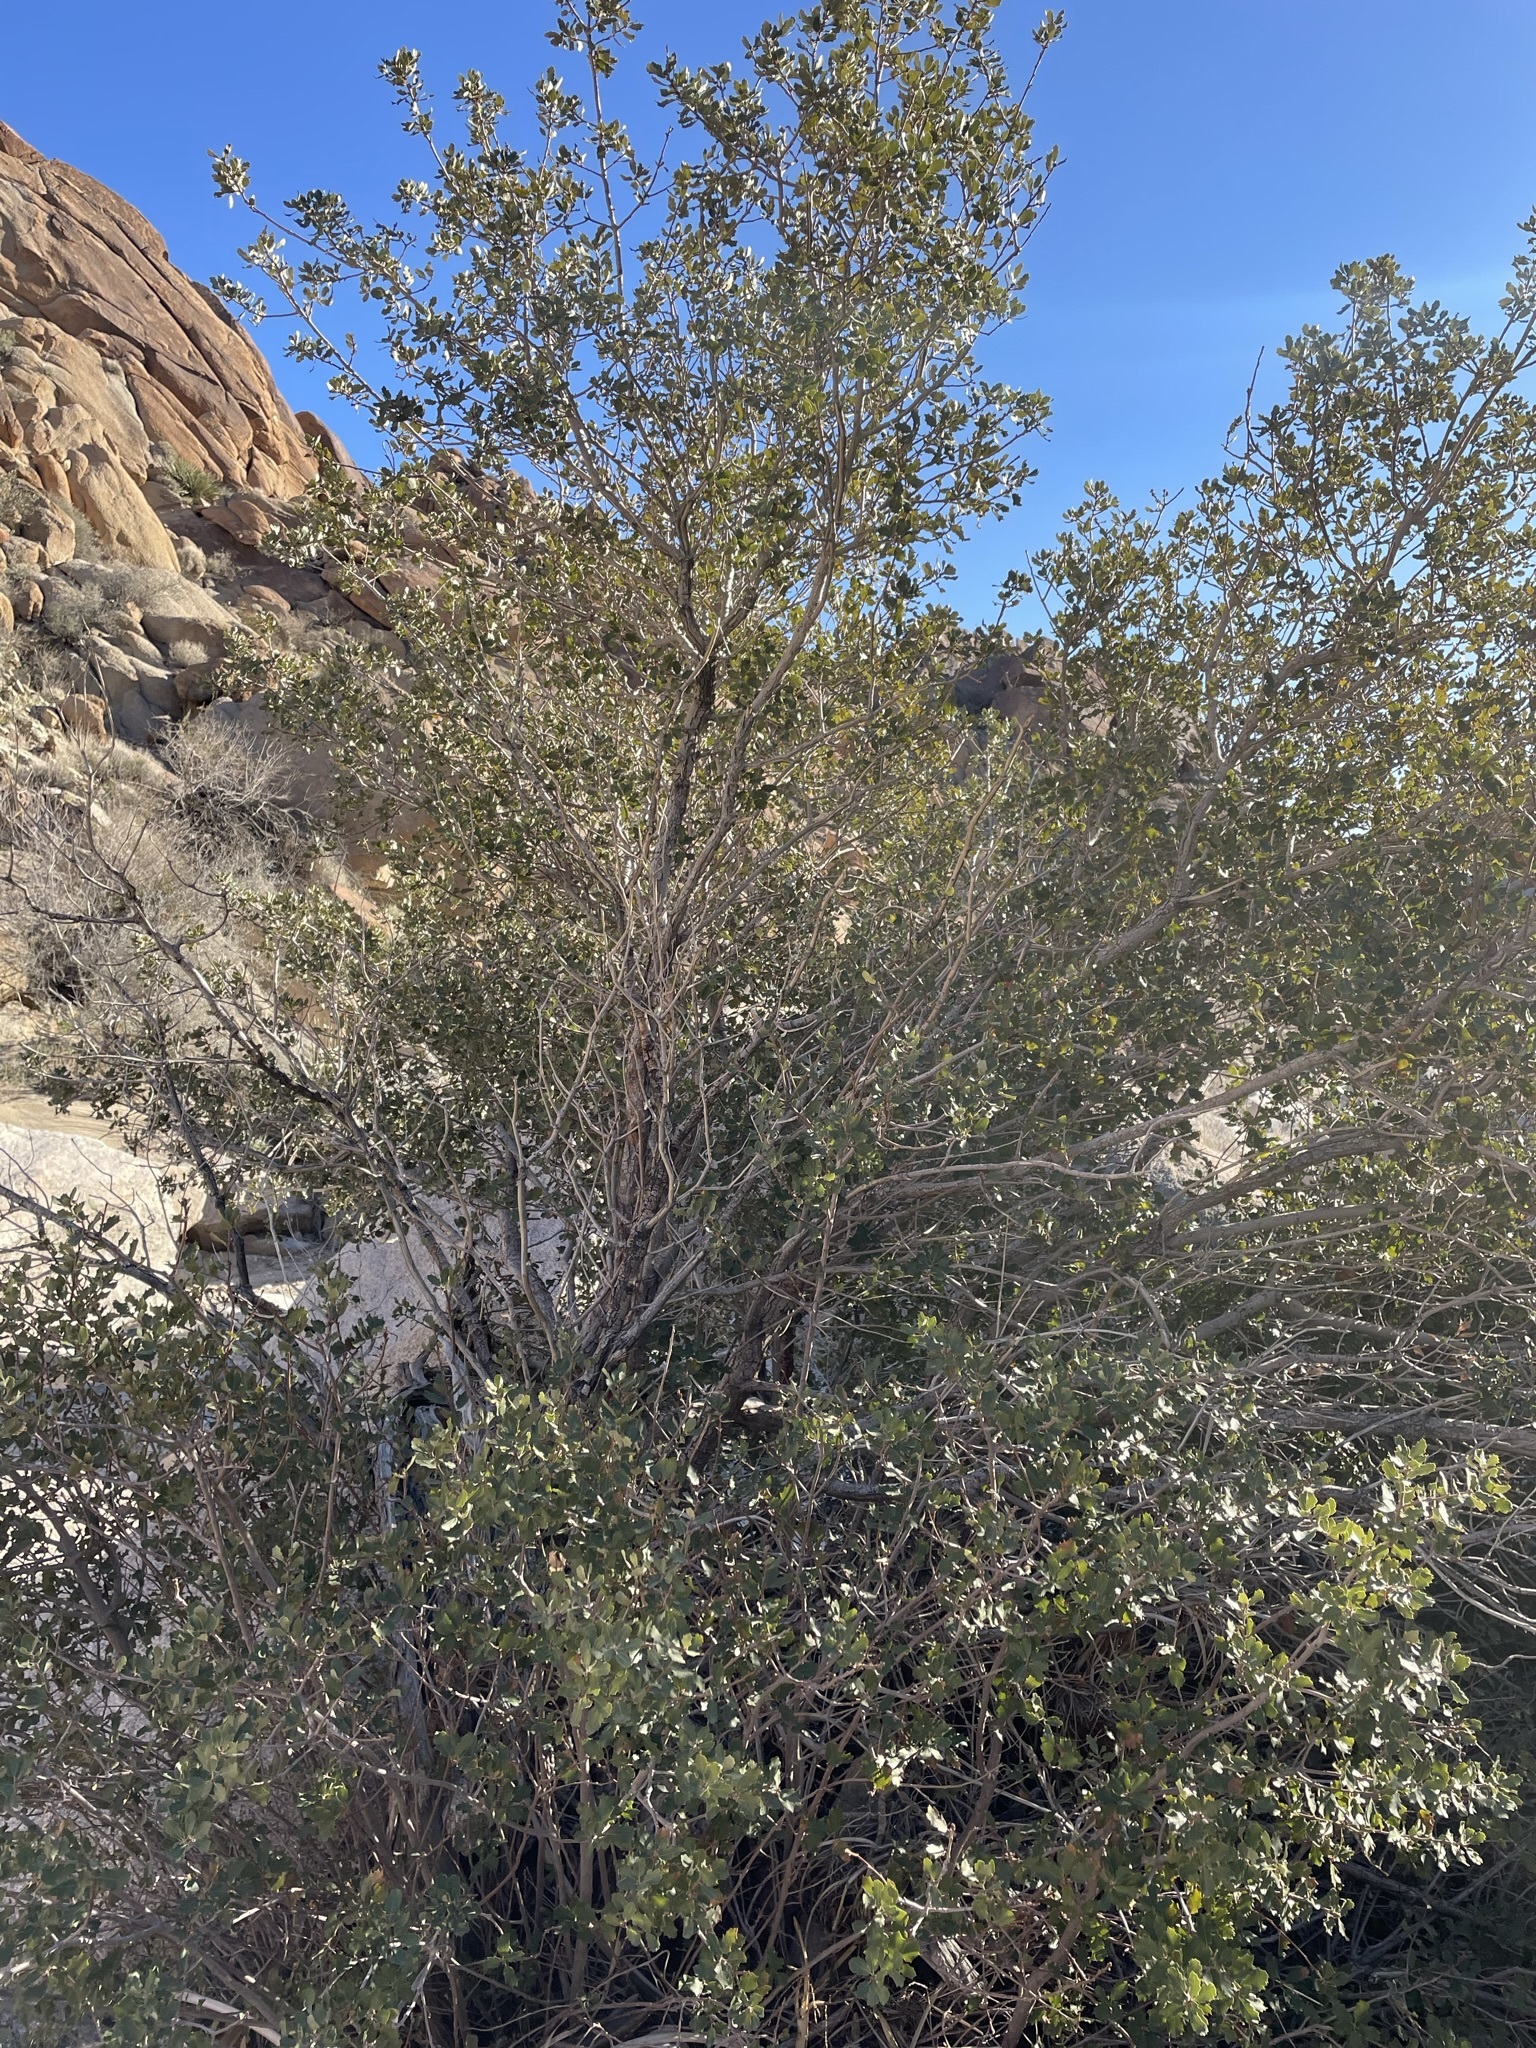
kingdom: Plantae
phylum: Tracheophyta
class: Magnoliopsida
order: Fagales
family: Fagaceae
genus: Quercus
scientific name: Quercus cornelius-mulleri
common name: Muller oak
